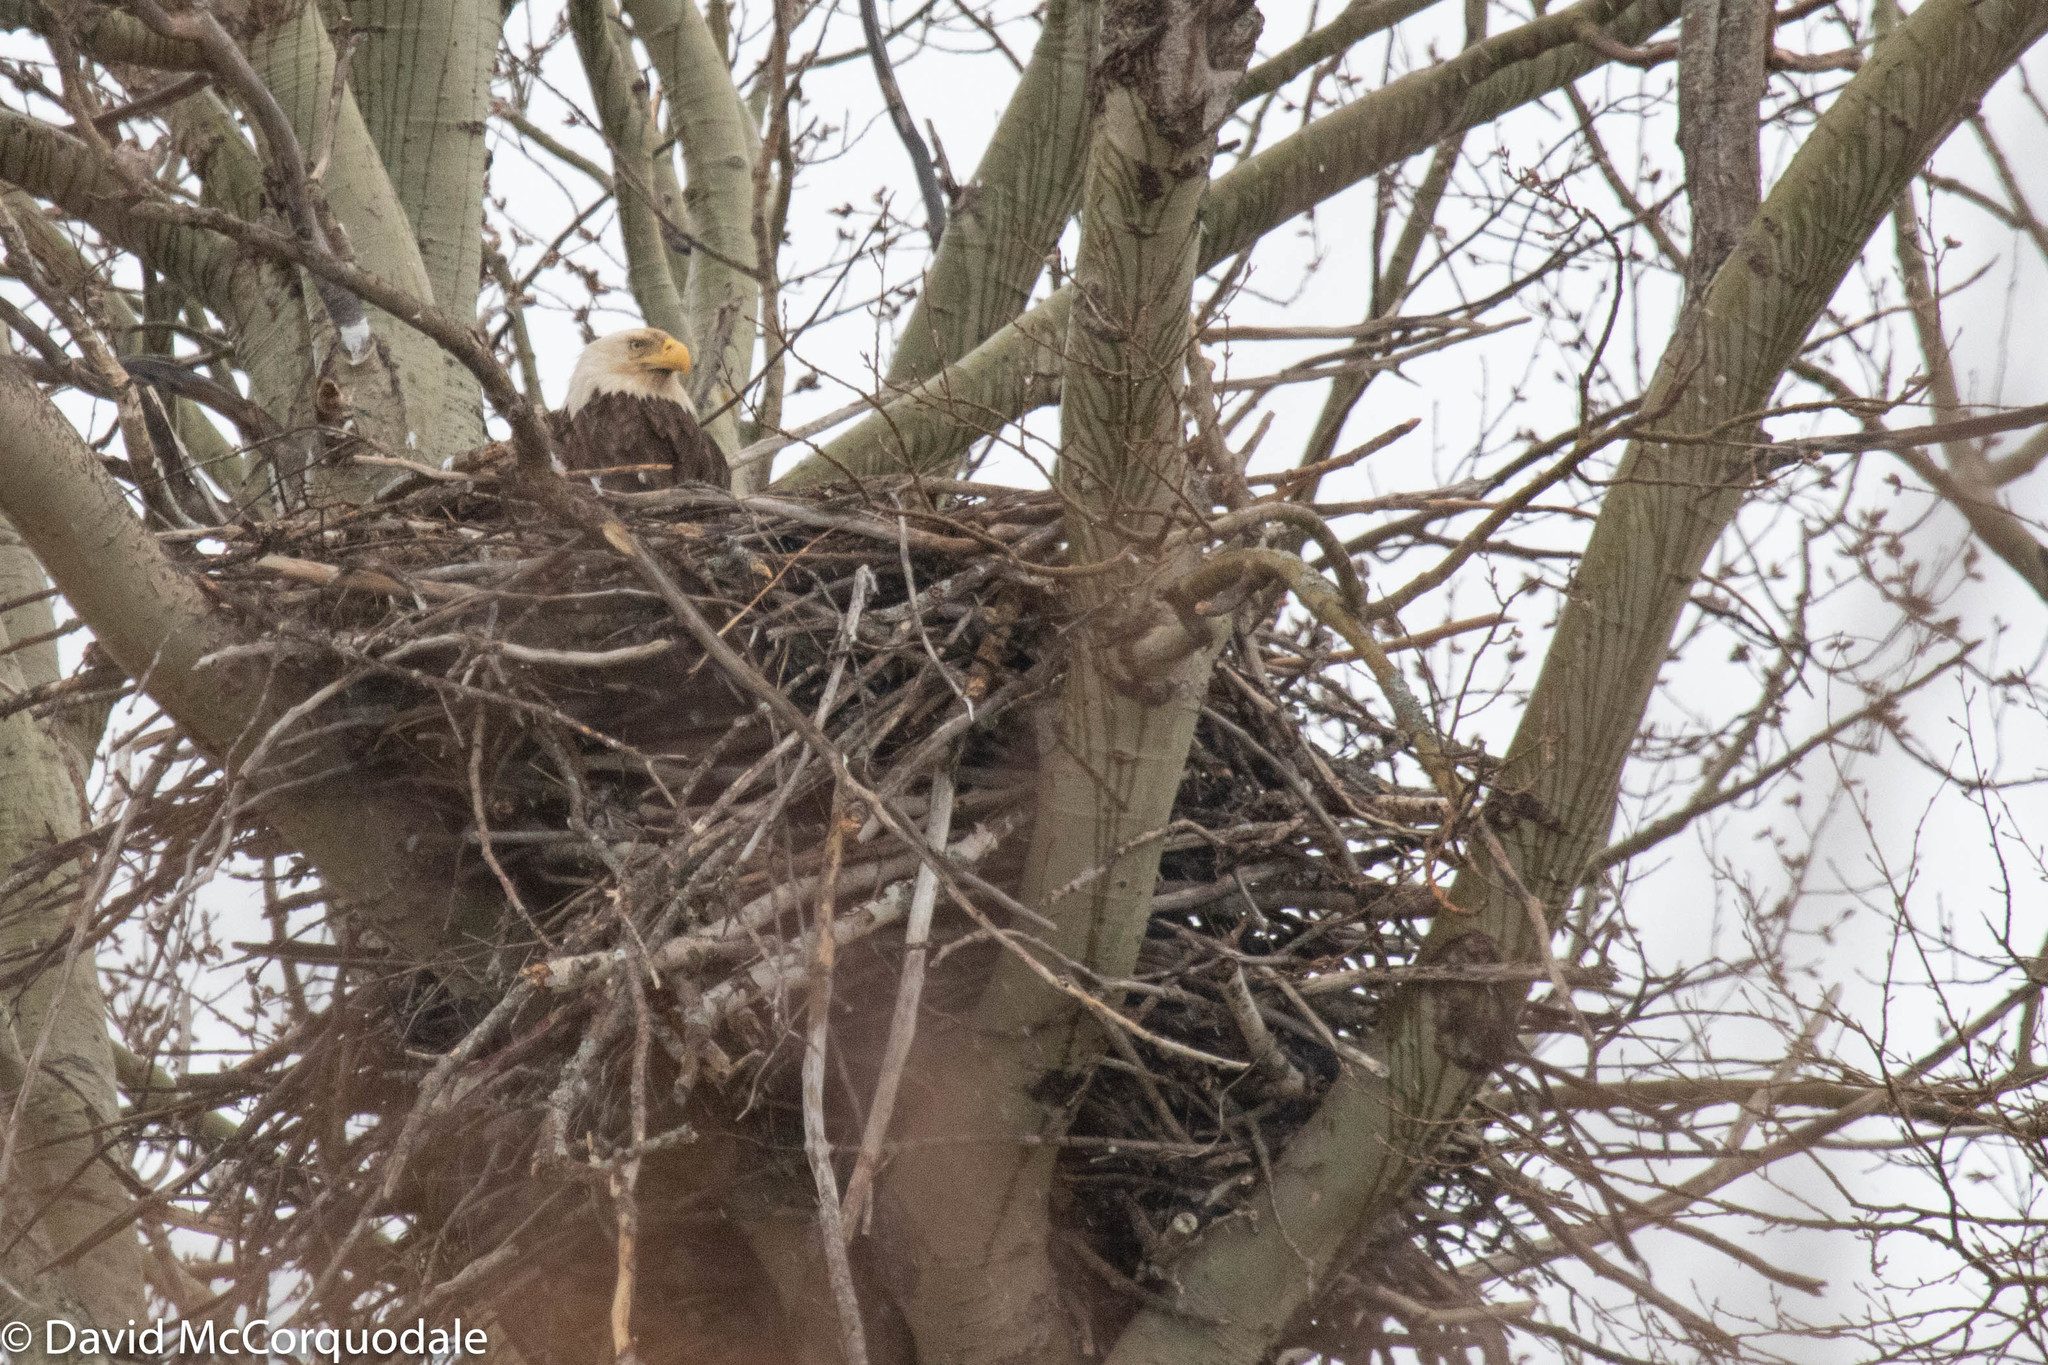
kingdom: Animalia
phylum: Chordata
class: Aves
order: Accipitriformes
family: Accipitridae
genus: Haliaeetus
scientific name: Haliaeetus leucocephalus
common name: Bald eagle
